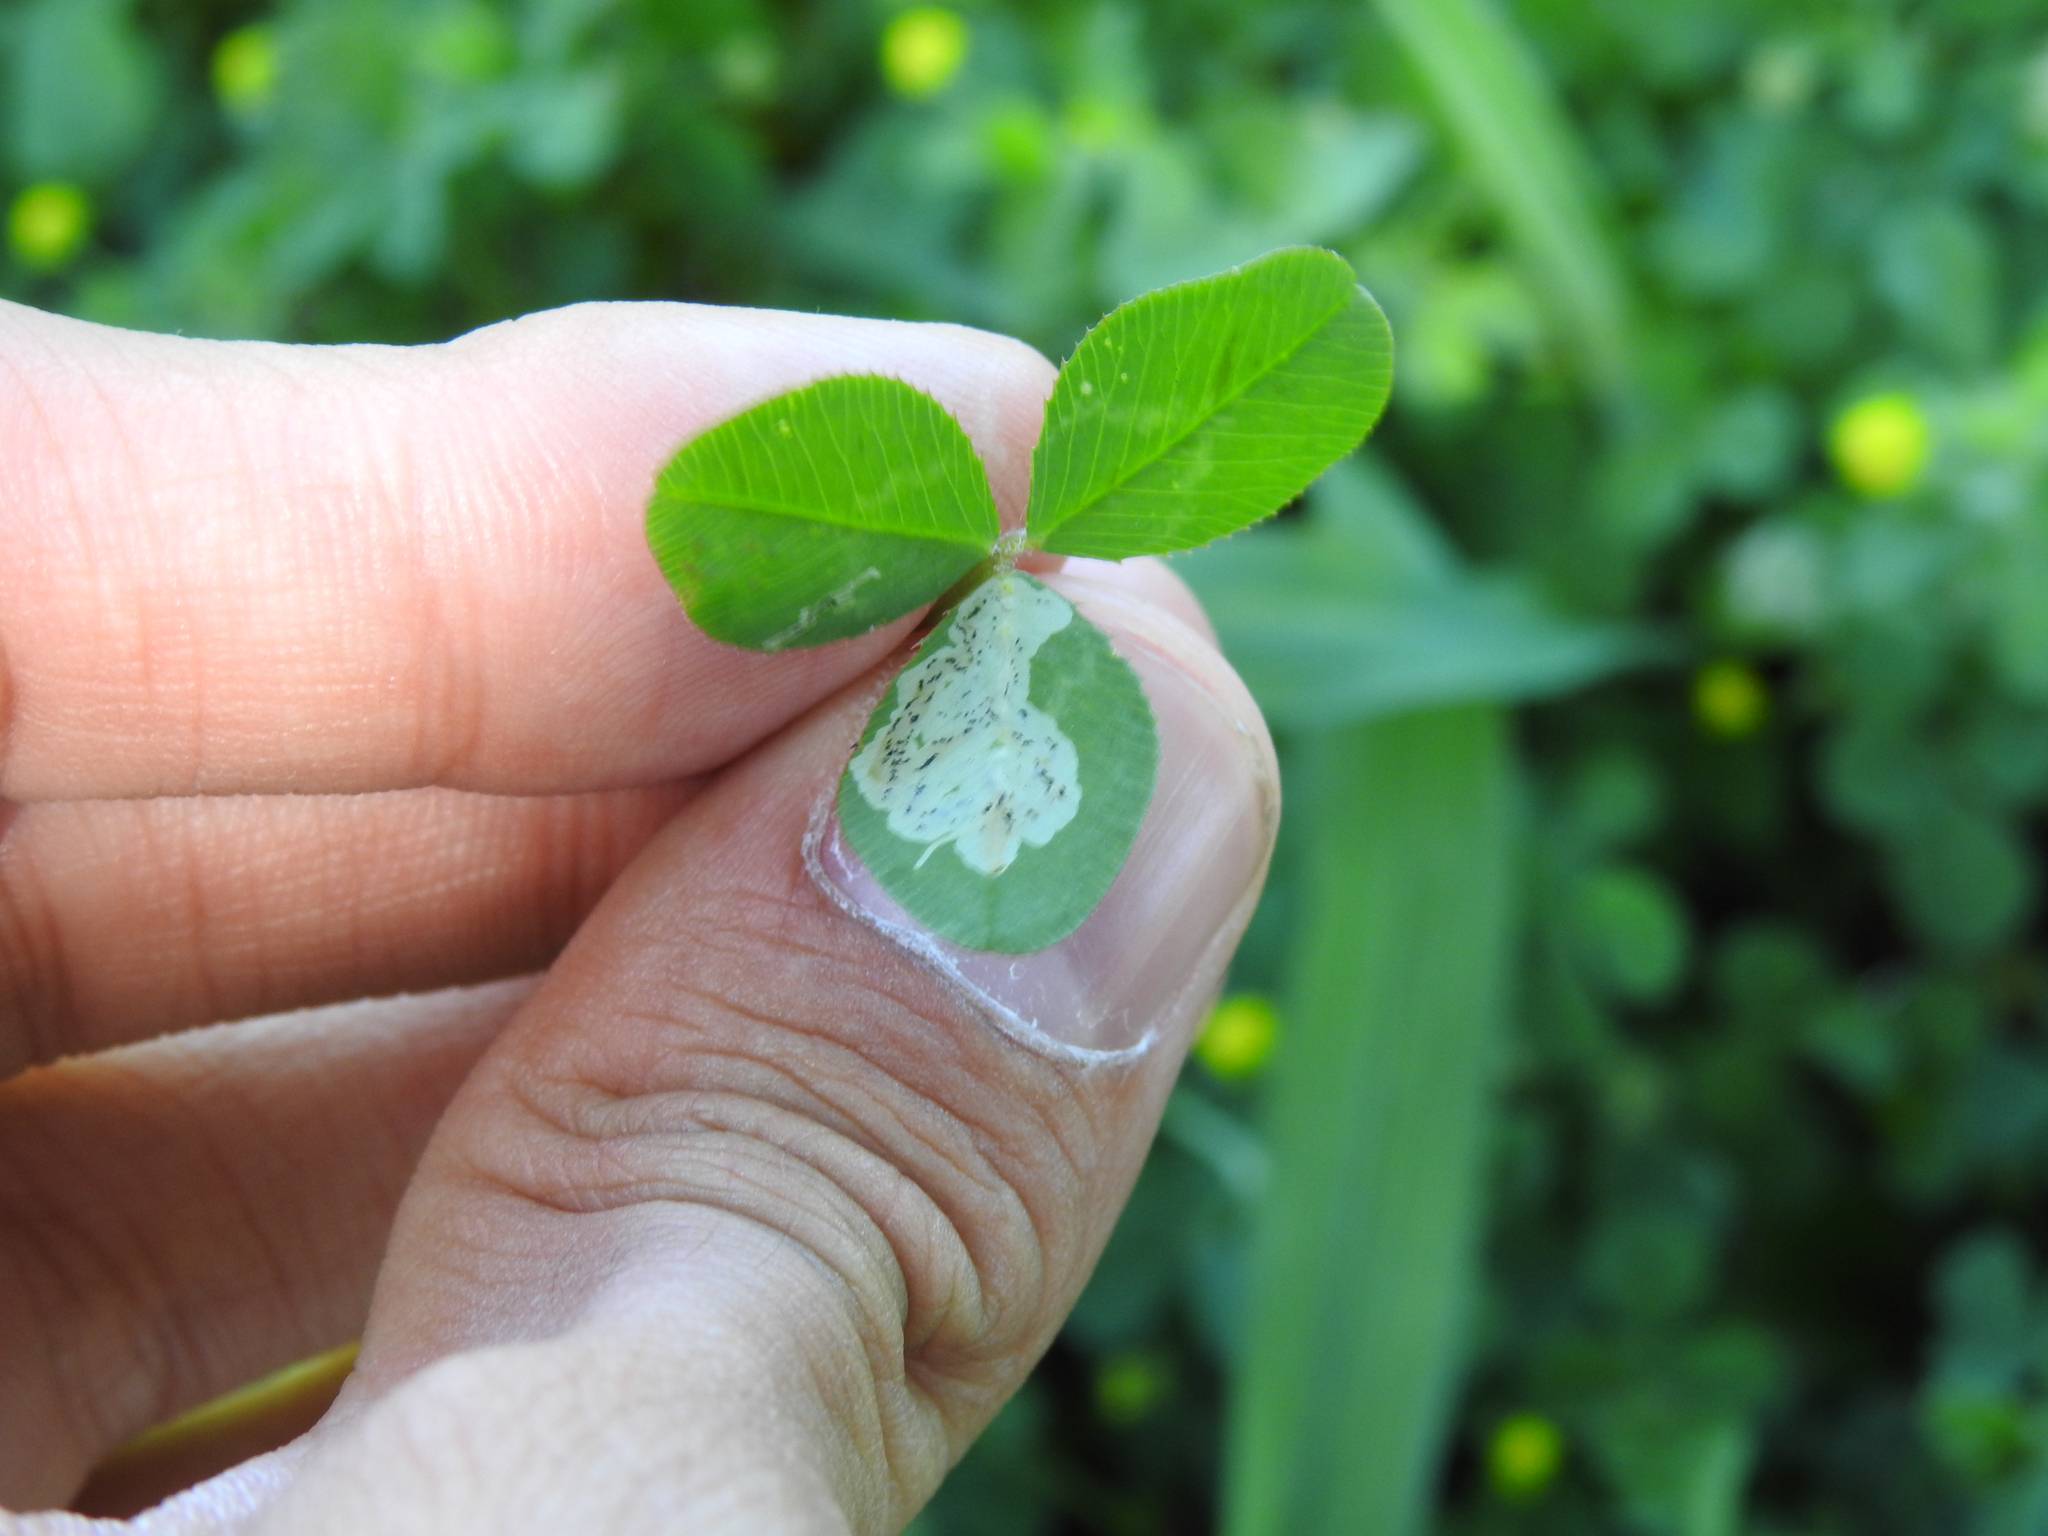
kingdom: Animalia
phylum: Arthropoda
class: Insecta
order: Diptera
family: Agromyzidae
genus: Liriomyza
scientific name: Liriomyza fricki
